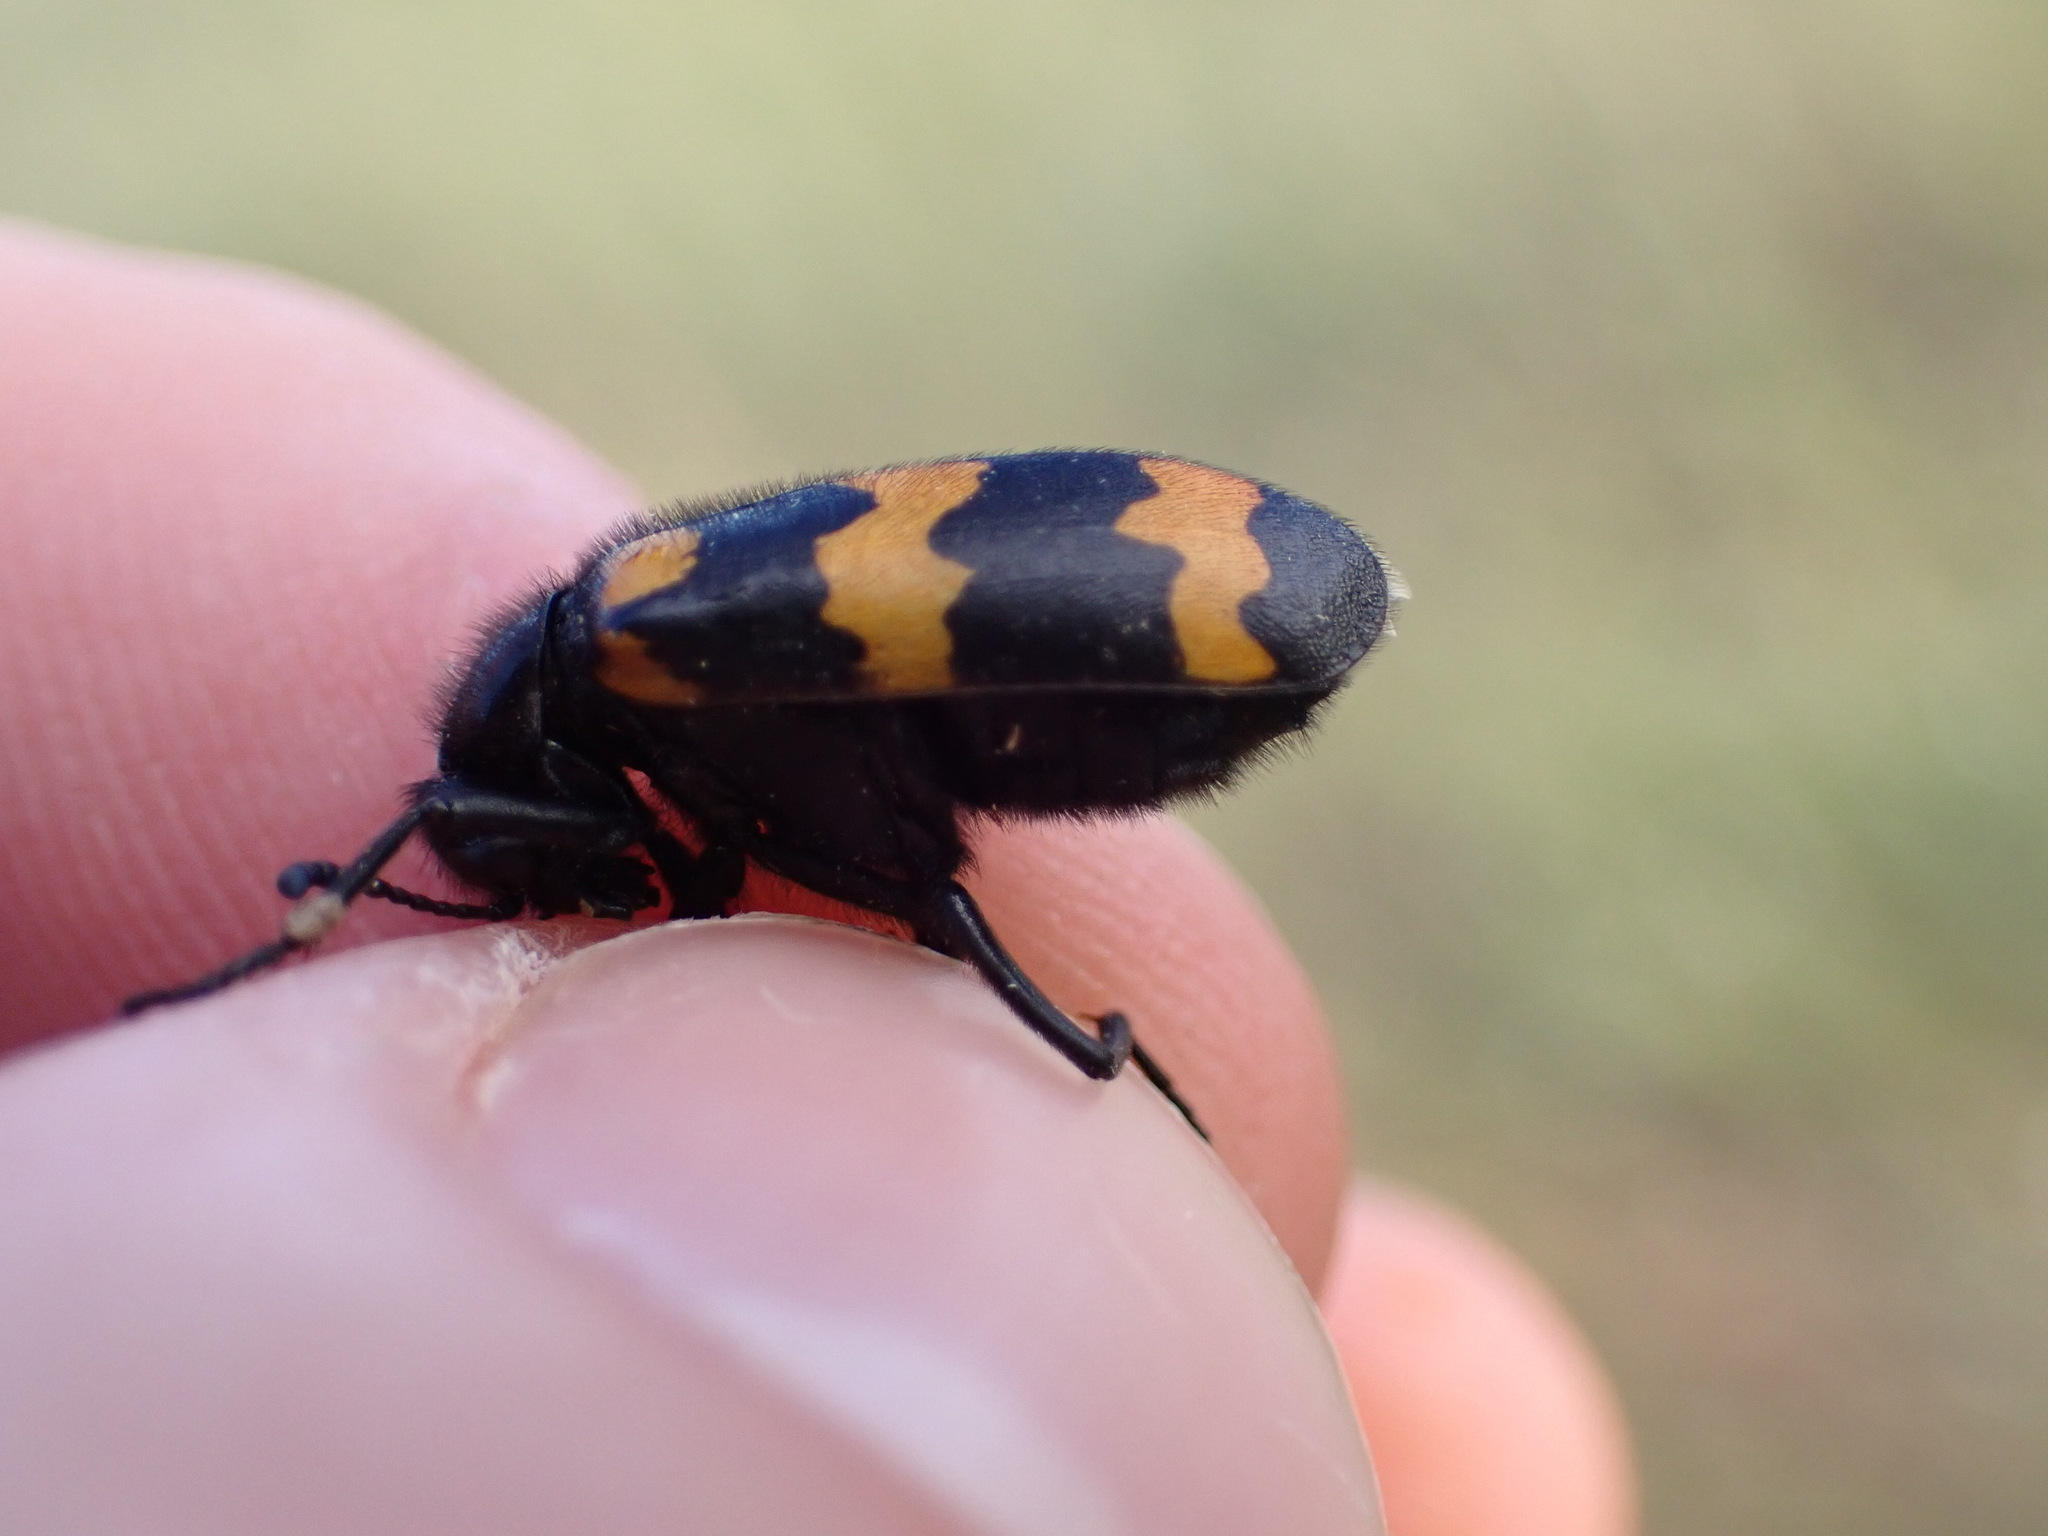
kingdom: Animalia
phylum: Arthropoda
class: Insecta
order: Coleoptera
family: Meloidae
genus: Mylabris
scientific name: Mylabris variabilis
